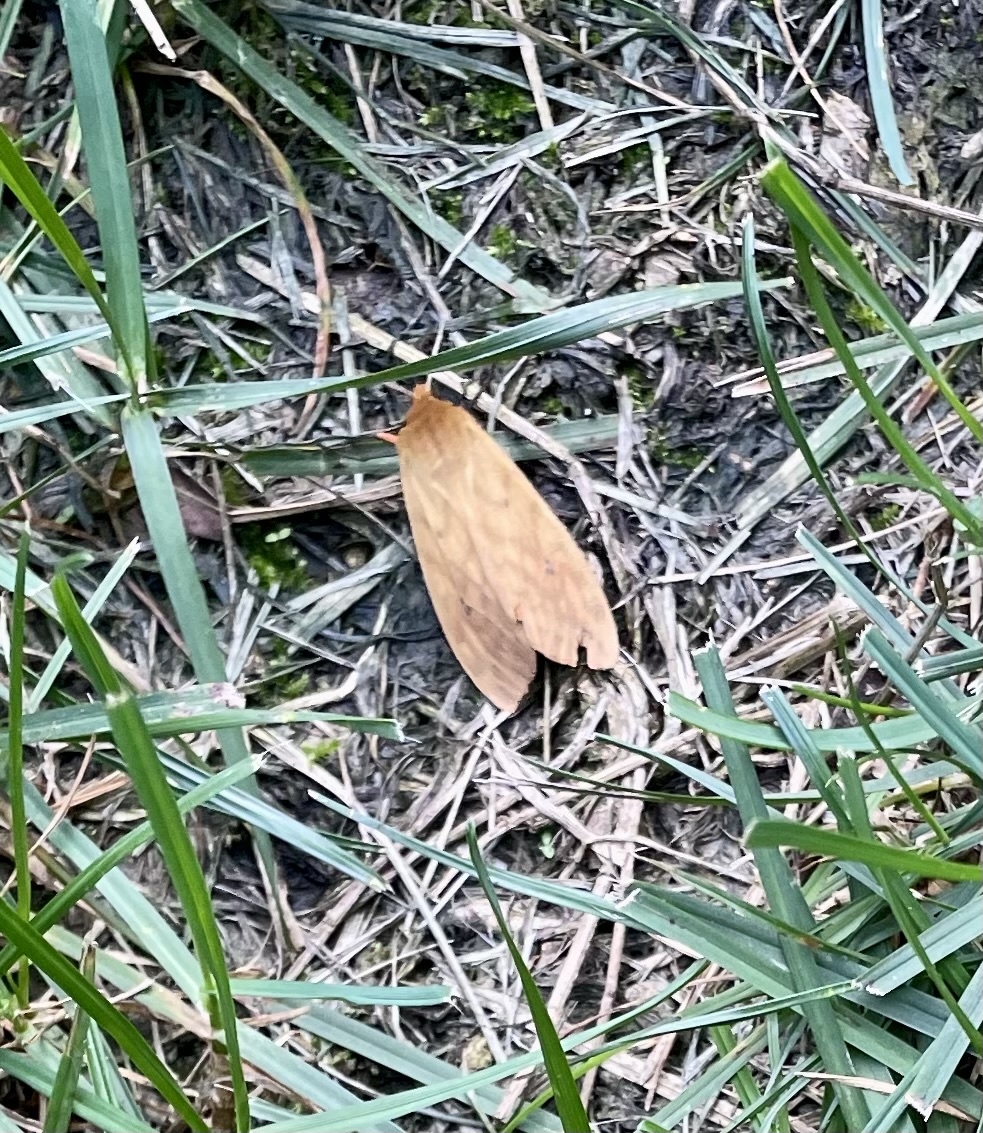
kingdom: Animalia
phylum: Arthropoda
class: Insecta
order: Lepidoptera
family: Erebidae
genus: Pyrrharctia
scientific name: Pyrrharctia isabella
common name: Isabella tiger moth
